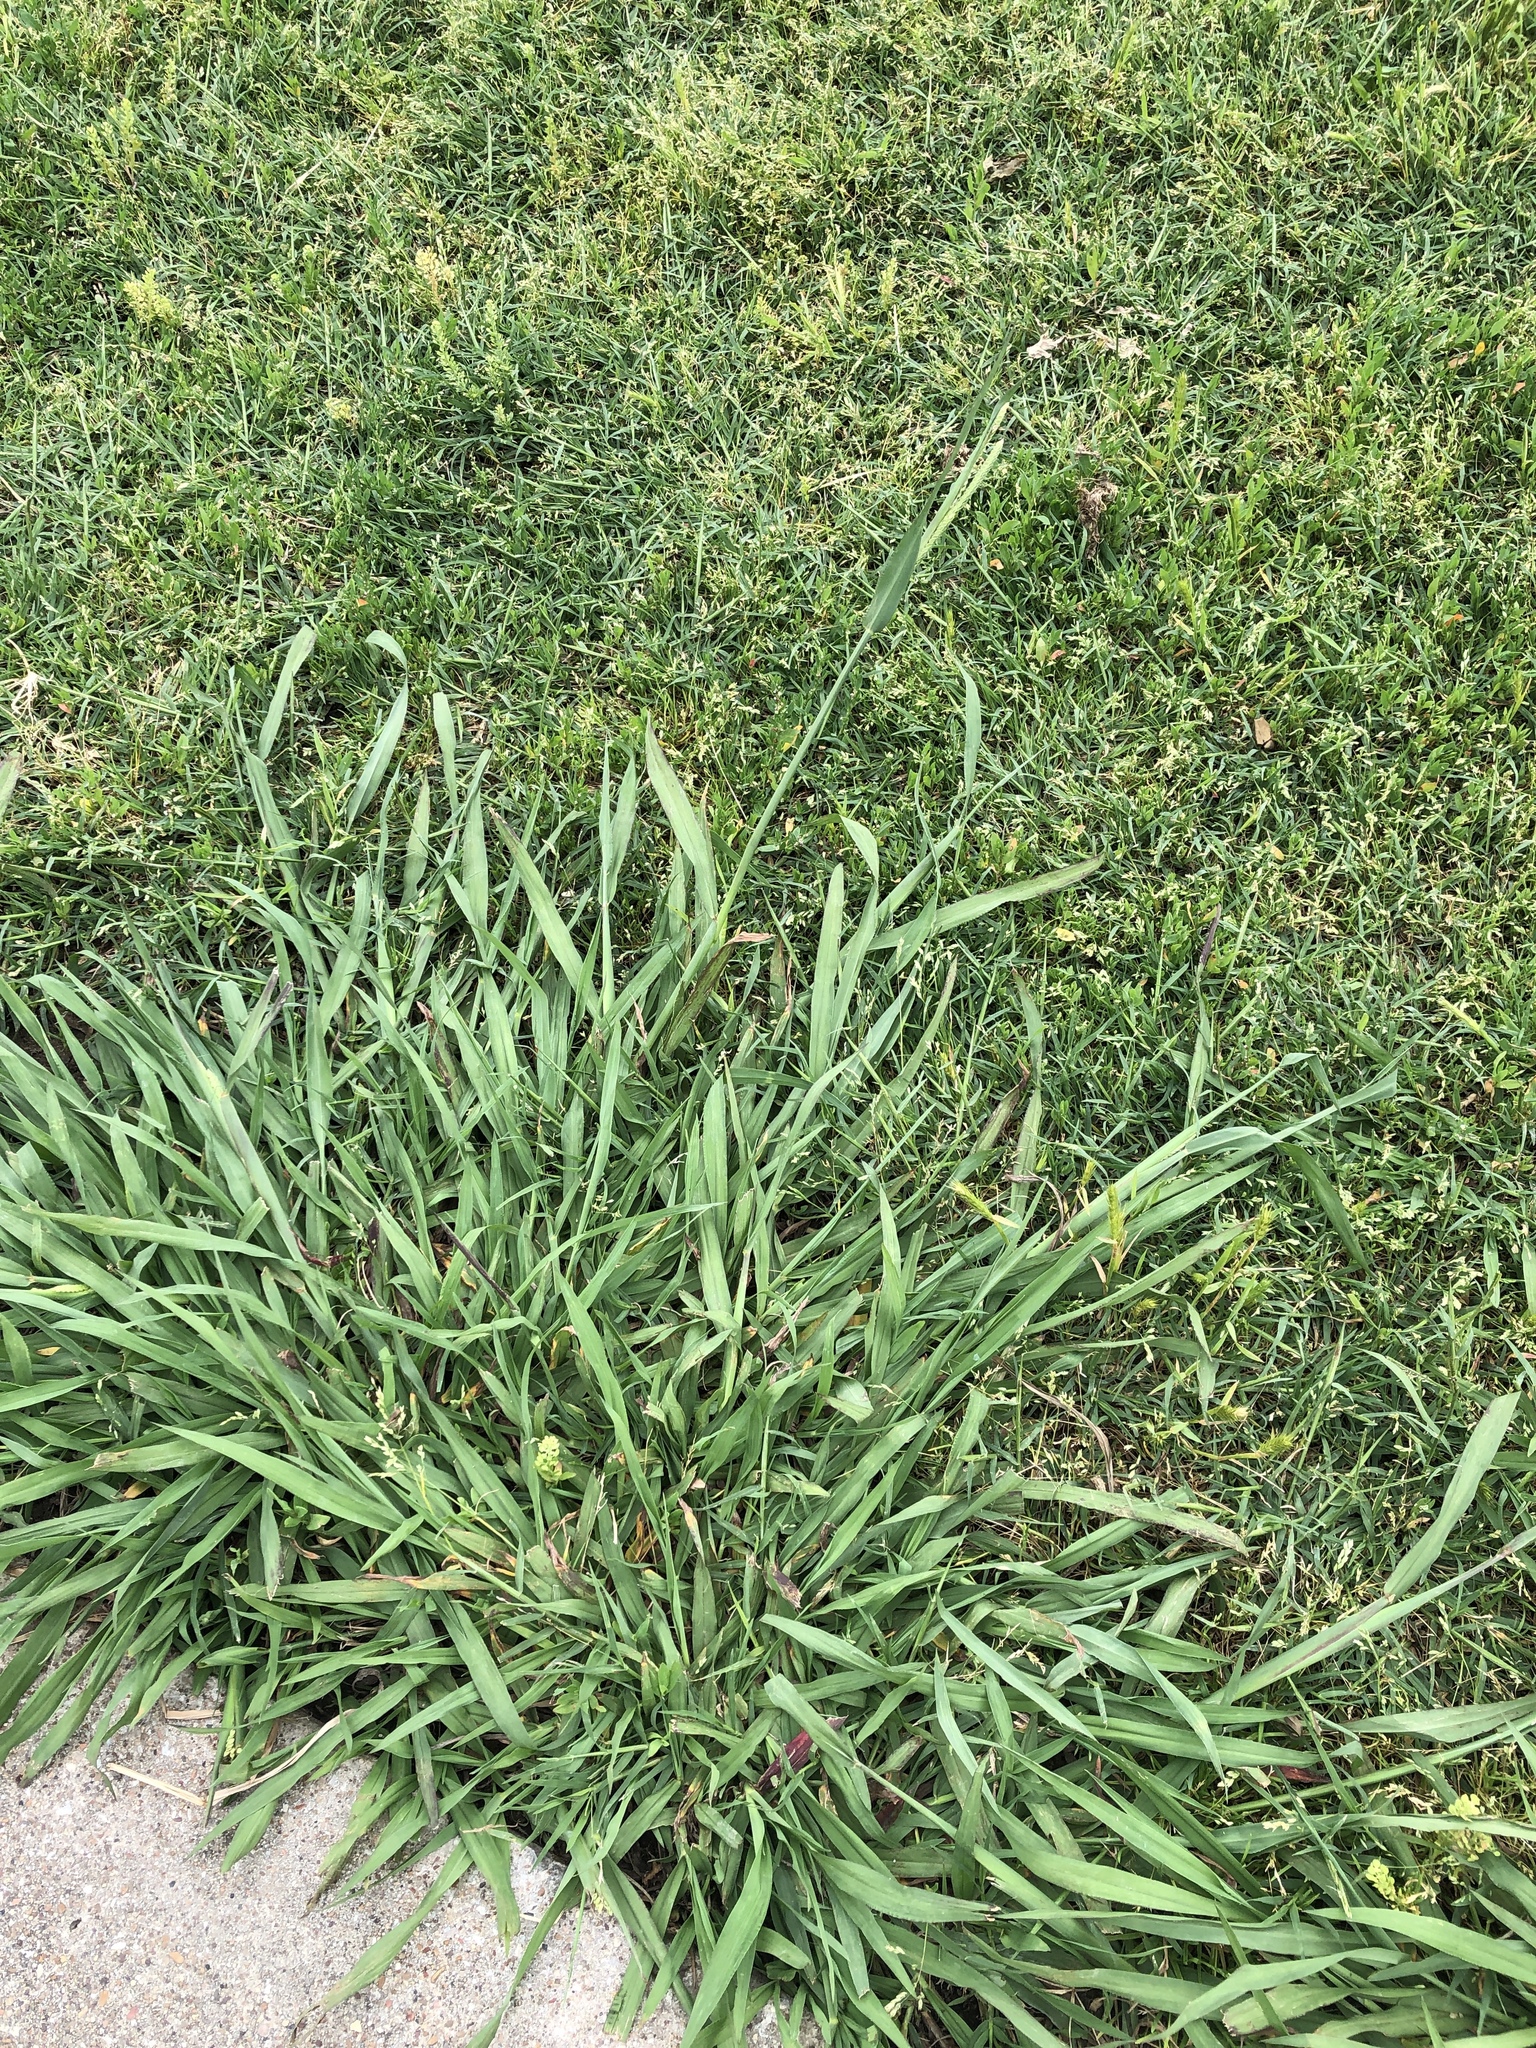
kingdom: Plantae
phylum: Tracheophyta
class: Liliopsida
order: Poales
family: Poaceae
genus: Paspalum
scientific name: Paspalum dilatatum
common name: Dallisgrass
